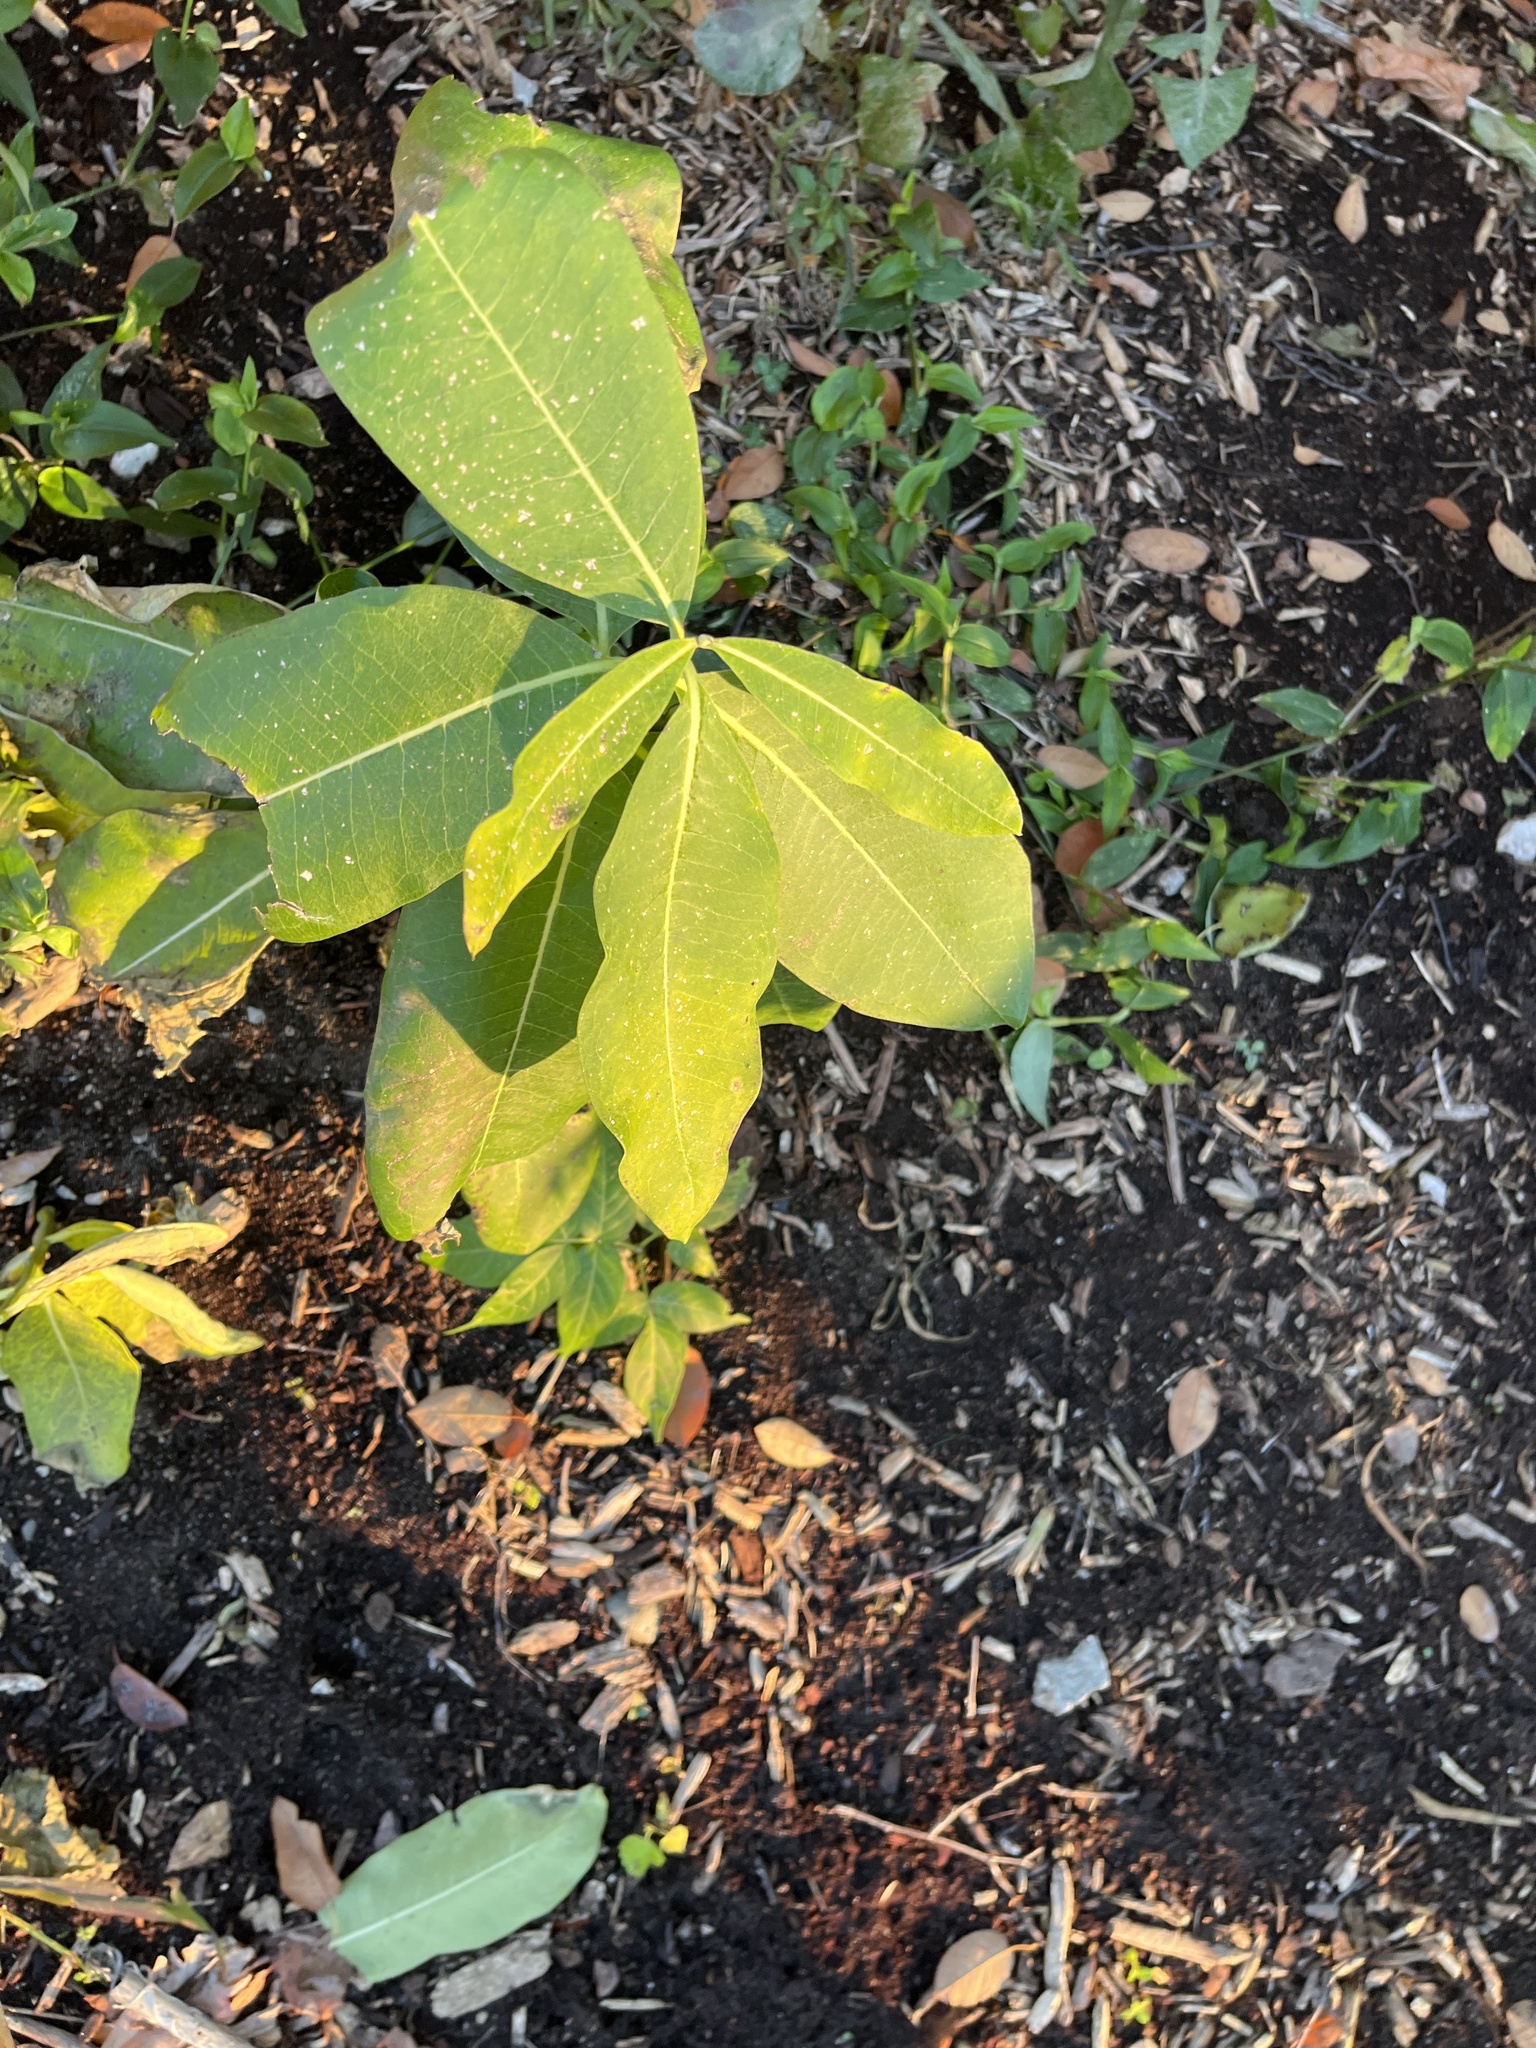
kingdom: Plantae
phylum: Tracheophyta
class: Magnoliopsida
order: Gentianales
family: Apocynaceae
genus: Asclepias
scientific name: Asclepias syriaca
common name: Common milkweed
